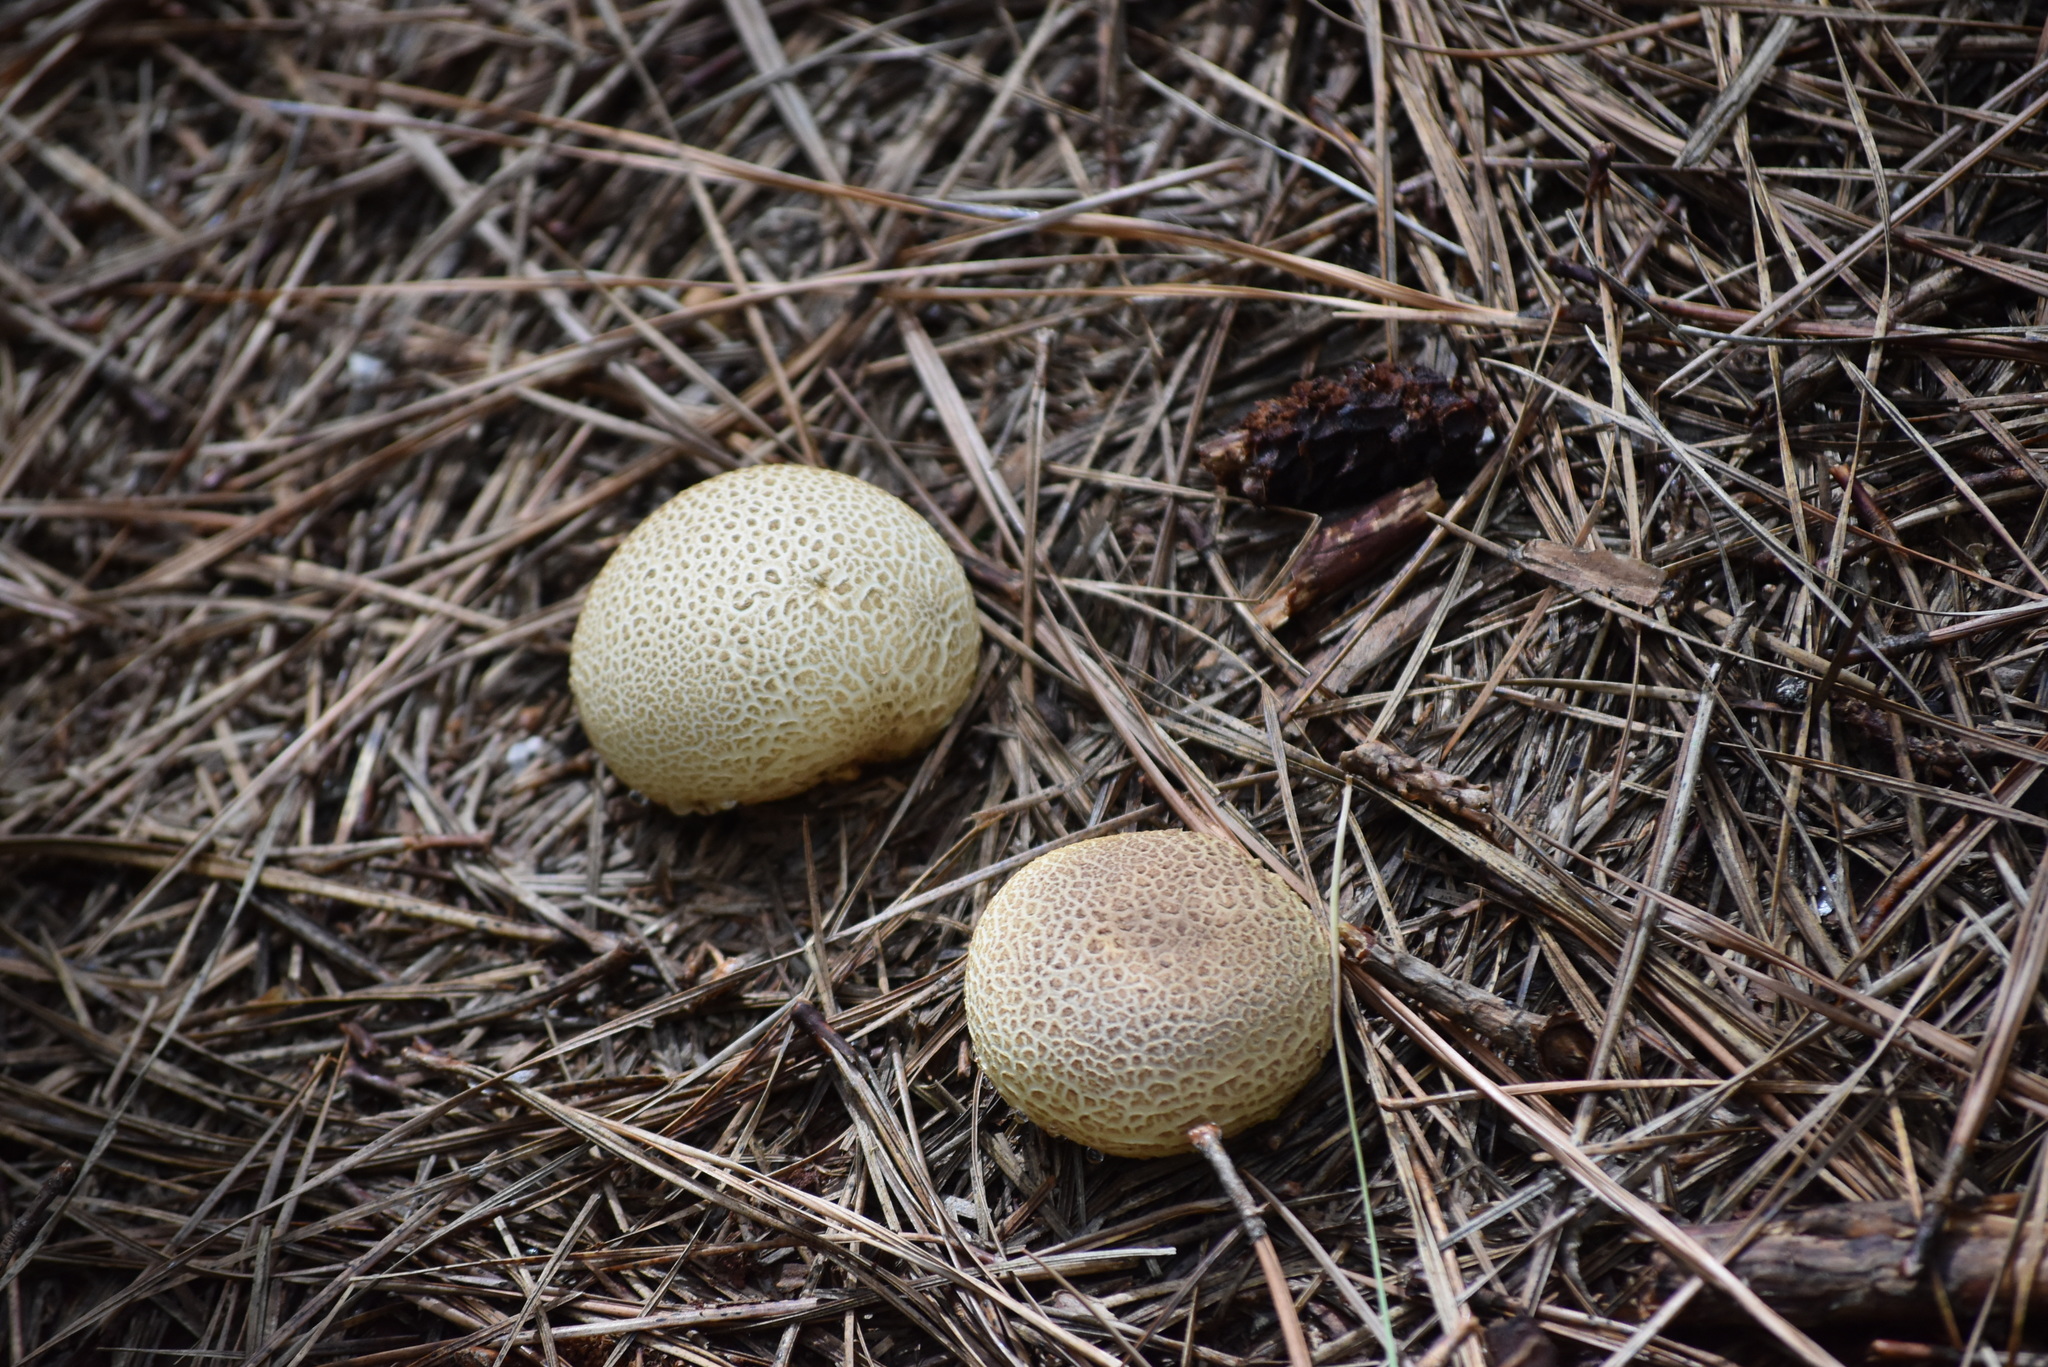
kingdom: Fungi
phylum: Basidiomycota
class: Agaricomycetes
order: Boletales
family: Sclerodermataceae
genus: Scleroderma
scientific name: Scleroderma citrinum
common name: Common earthball
